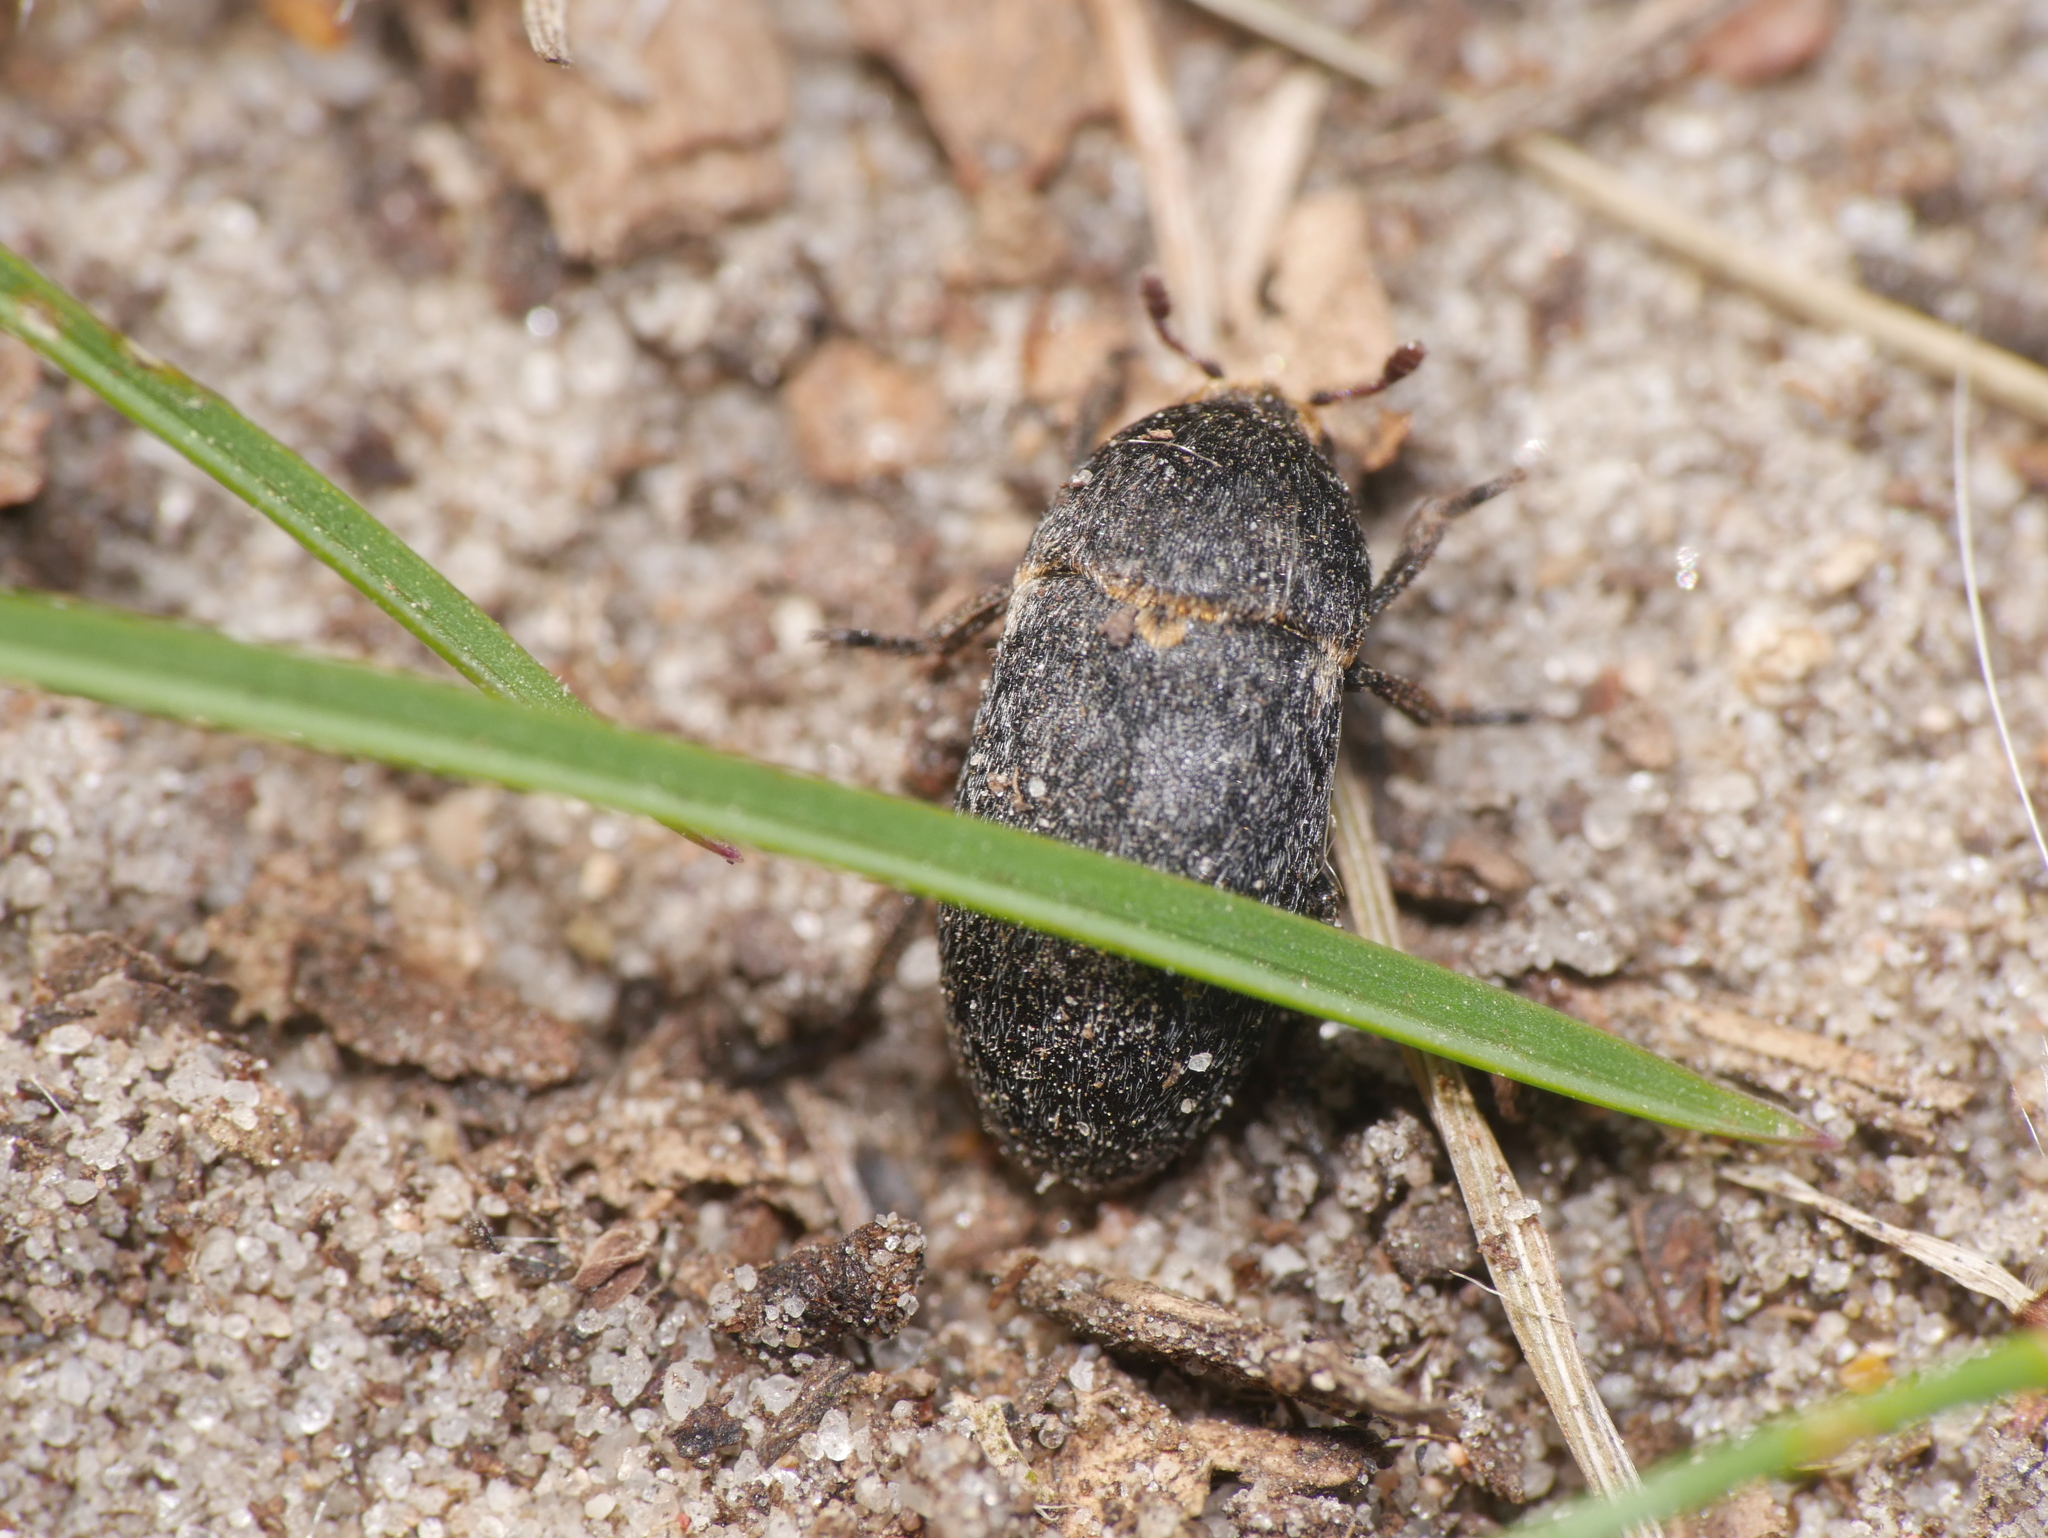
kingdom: Animalia
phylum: Arthropoda
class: Insecta
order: Coleoptera
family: Dermestidae
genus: Dermestes
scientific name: Dermestes laniarius
